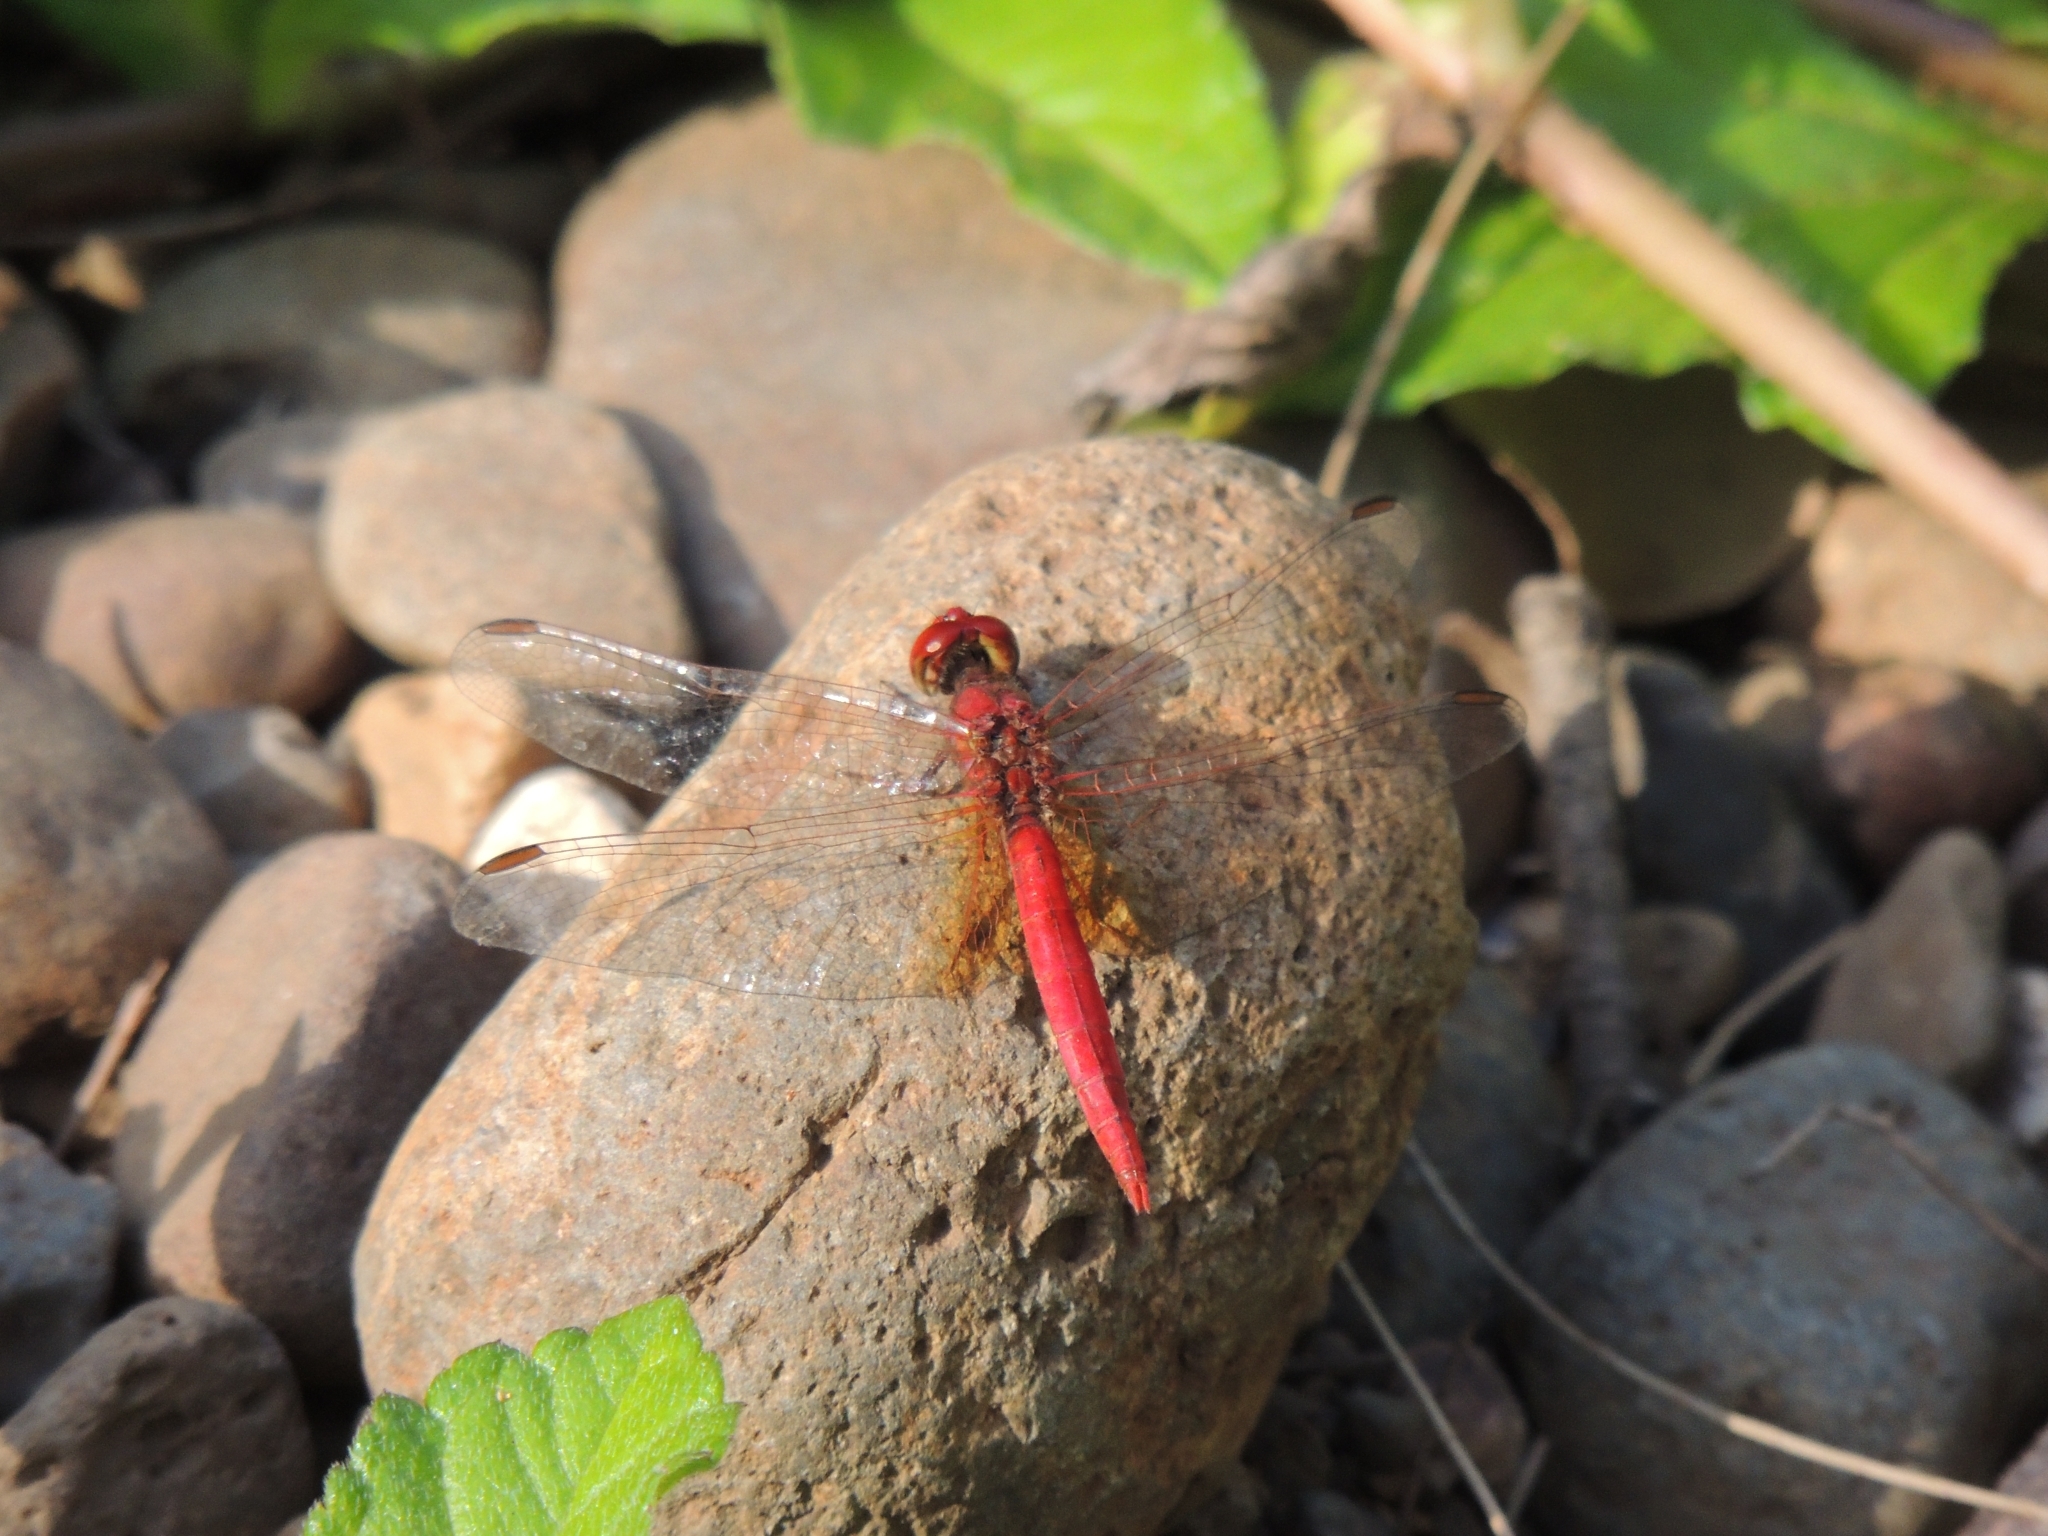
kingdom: Animalia
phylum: Arthropoda
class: Insecta
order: Odonata
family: Libellulidae
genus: Diplacodes
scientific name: Diplacodes haematodes
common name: Scarlet percher
